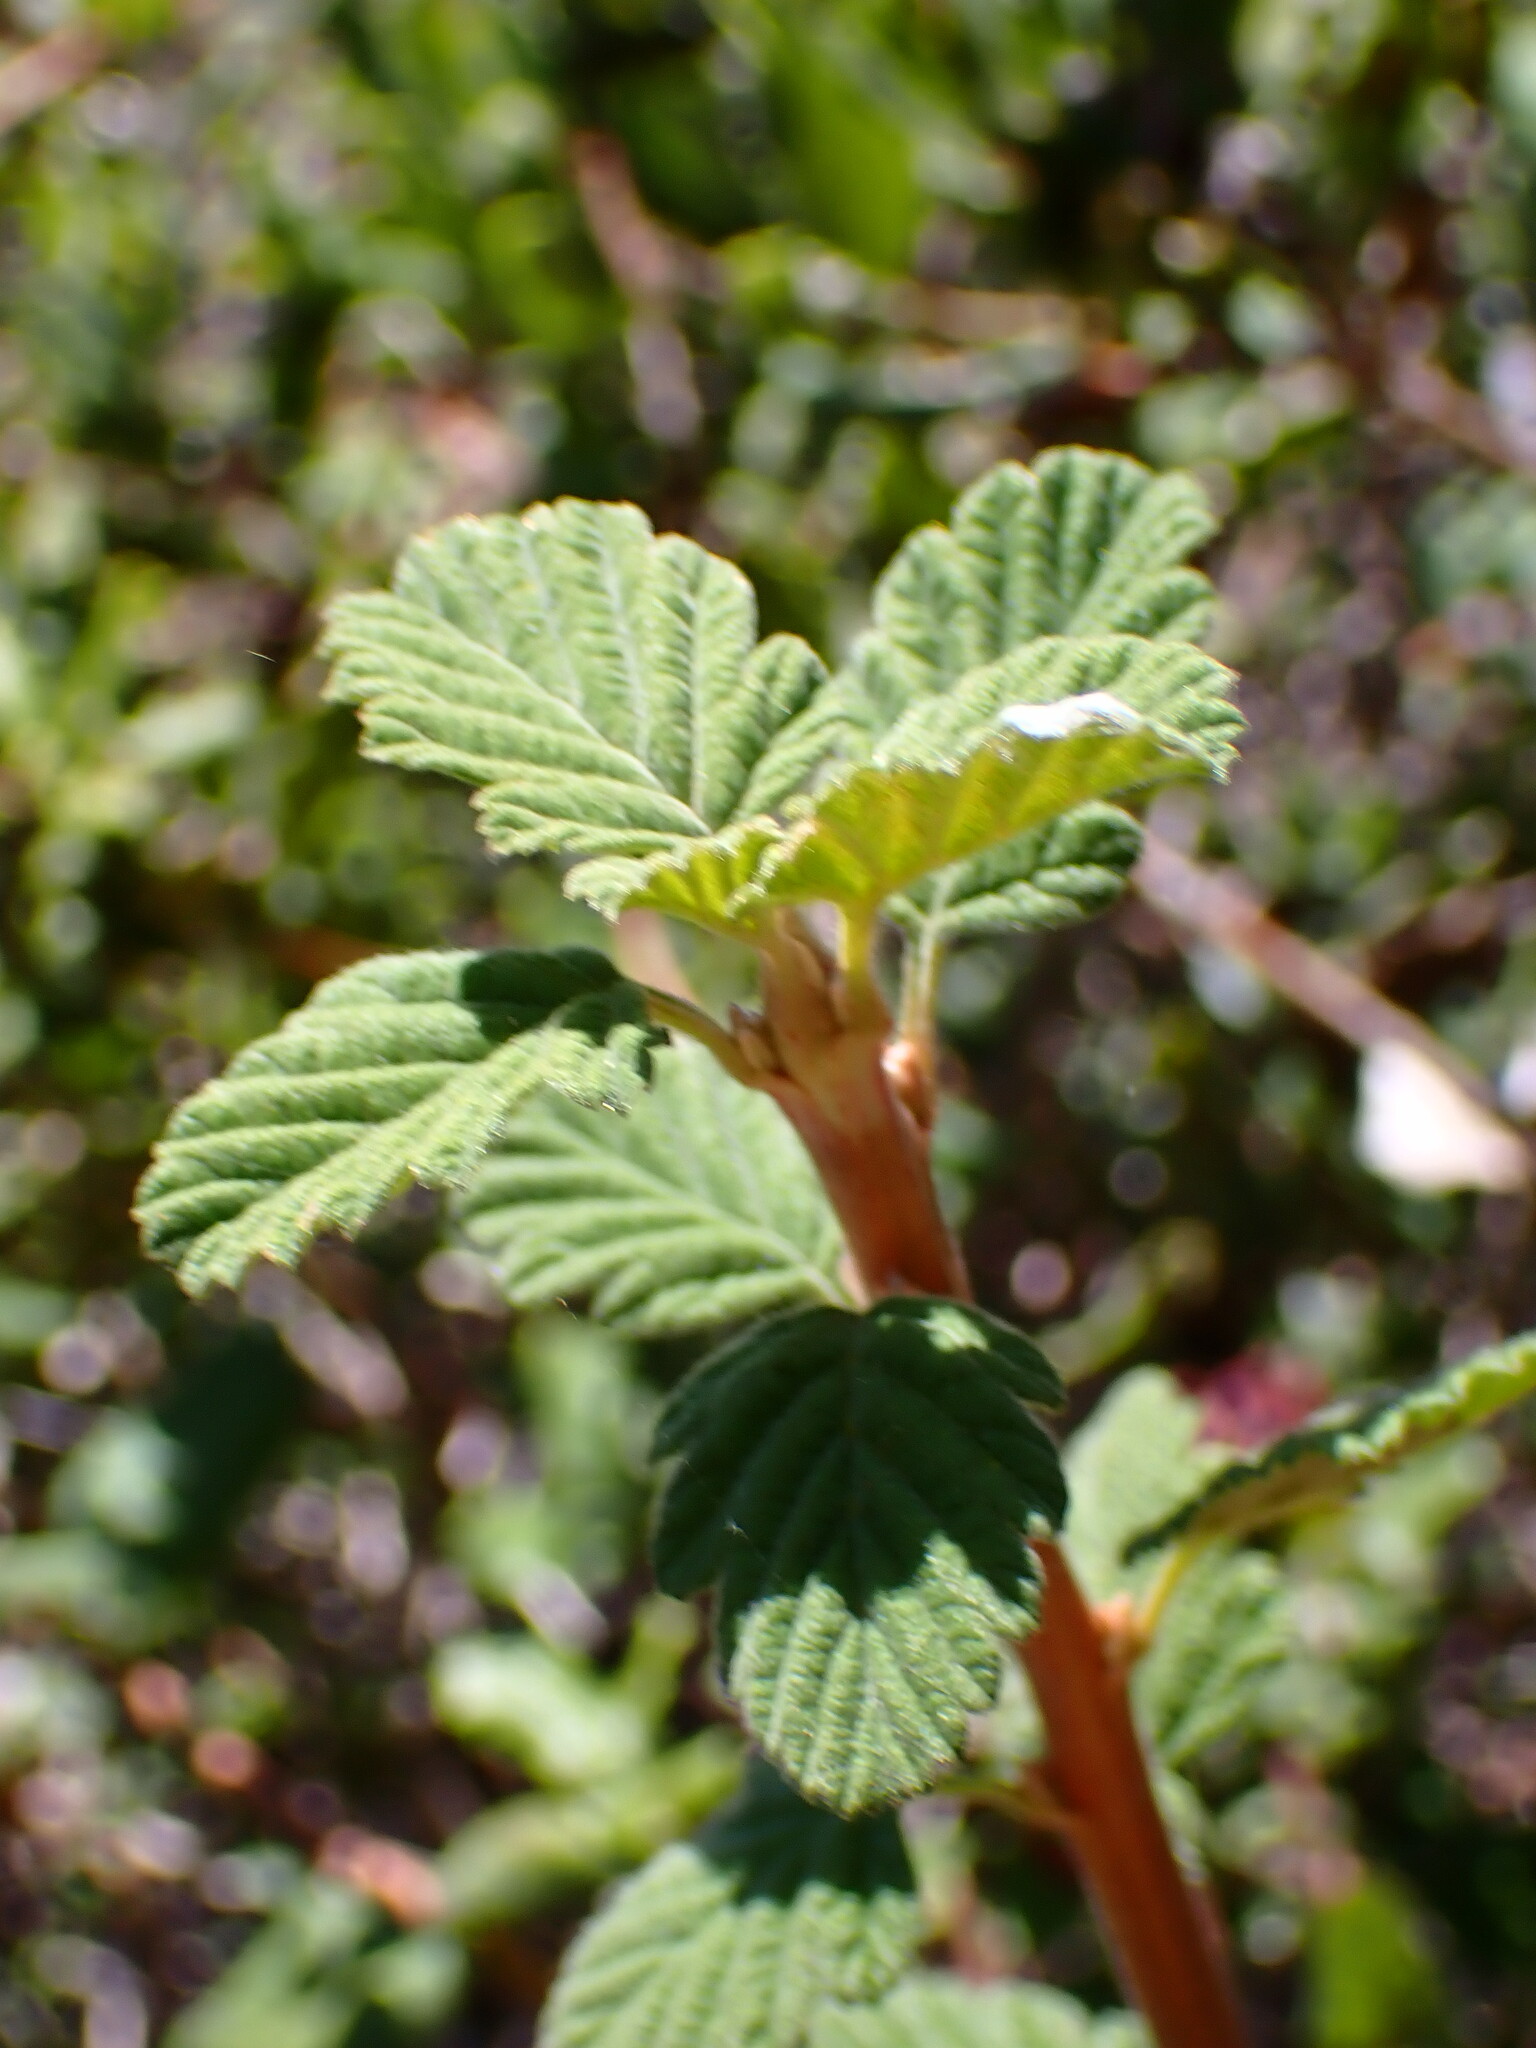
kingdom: Plantae
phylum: Tracheophyta
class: Magnoliopsida
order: Rosales
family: Rosaceae
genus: Holodiscus
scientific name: Holodiscus discolor
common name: Oceanspray
